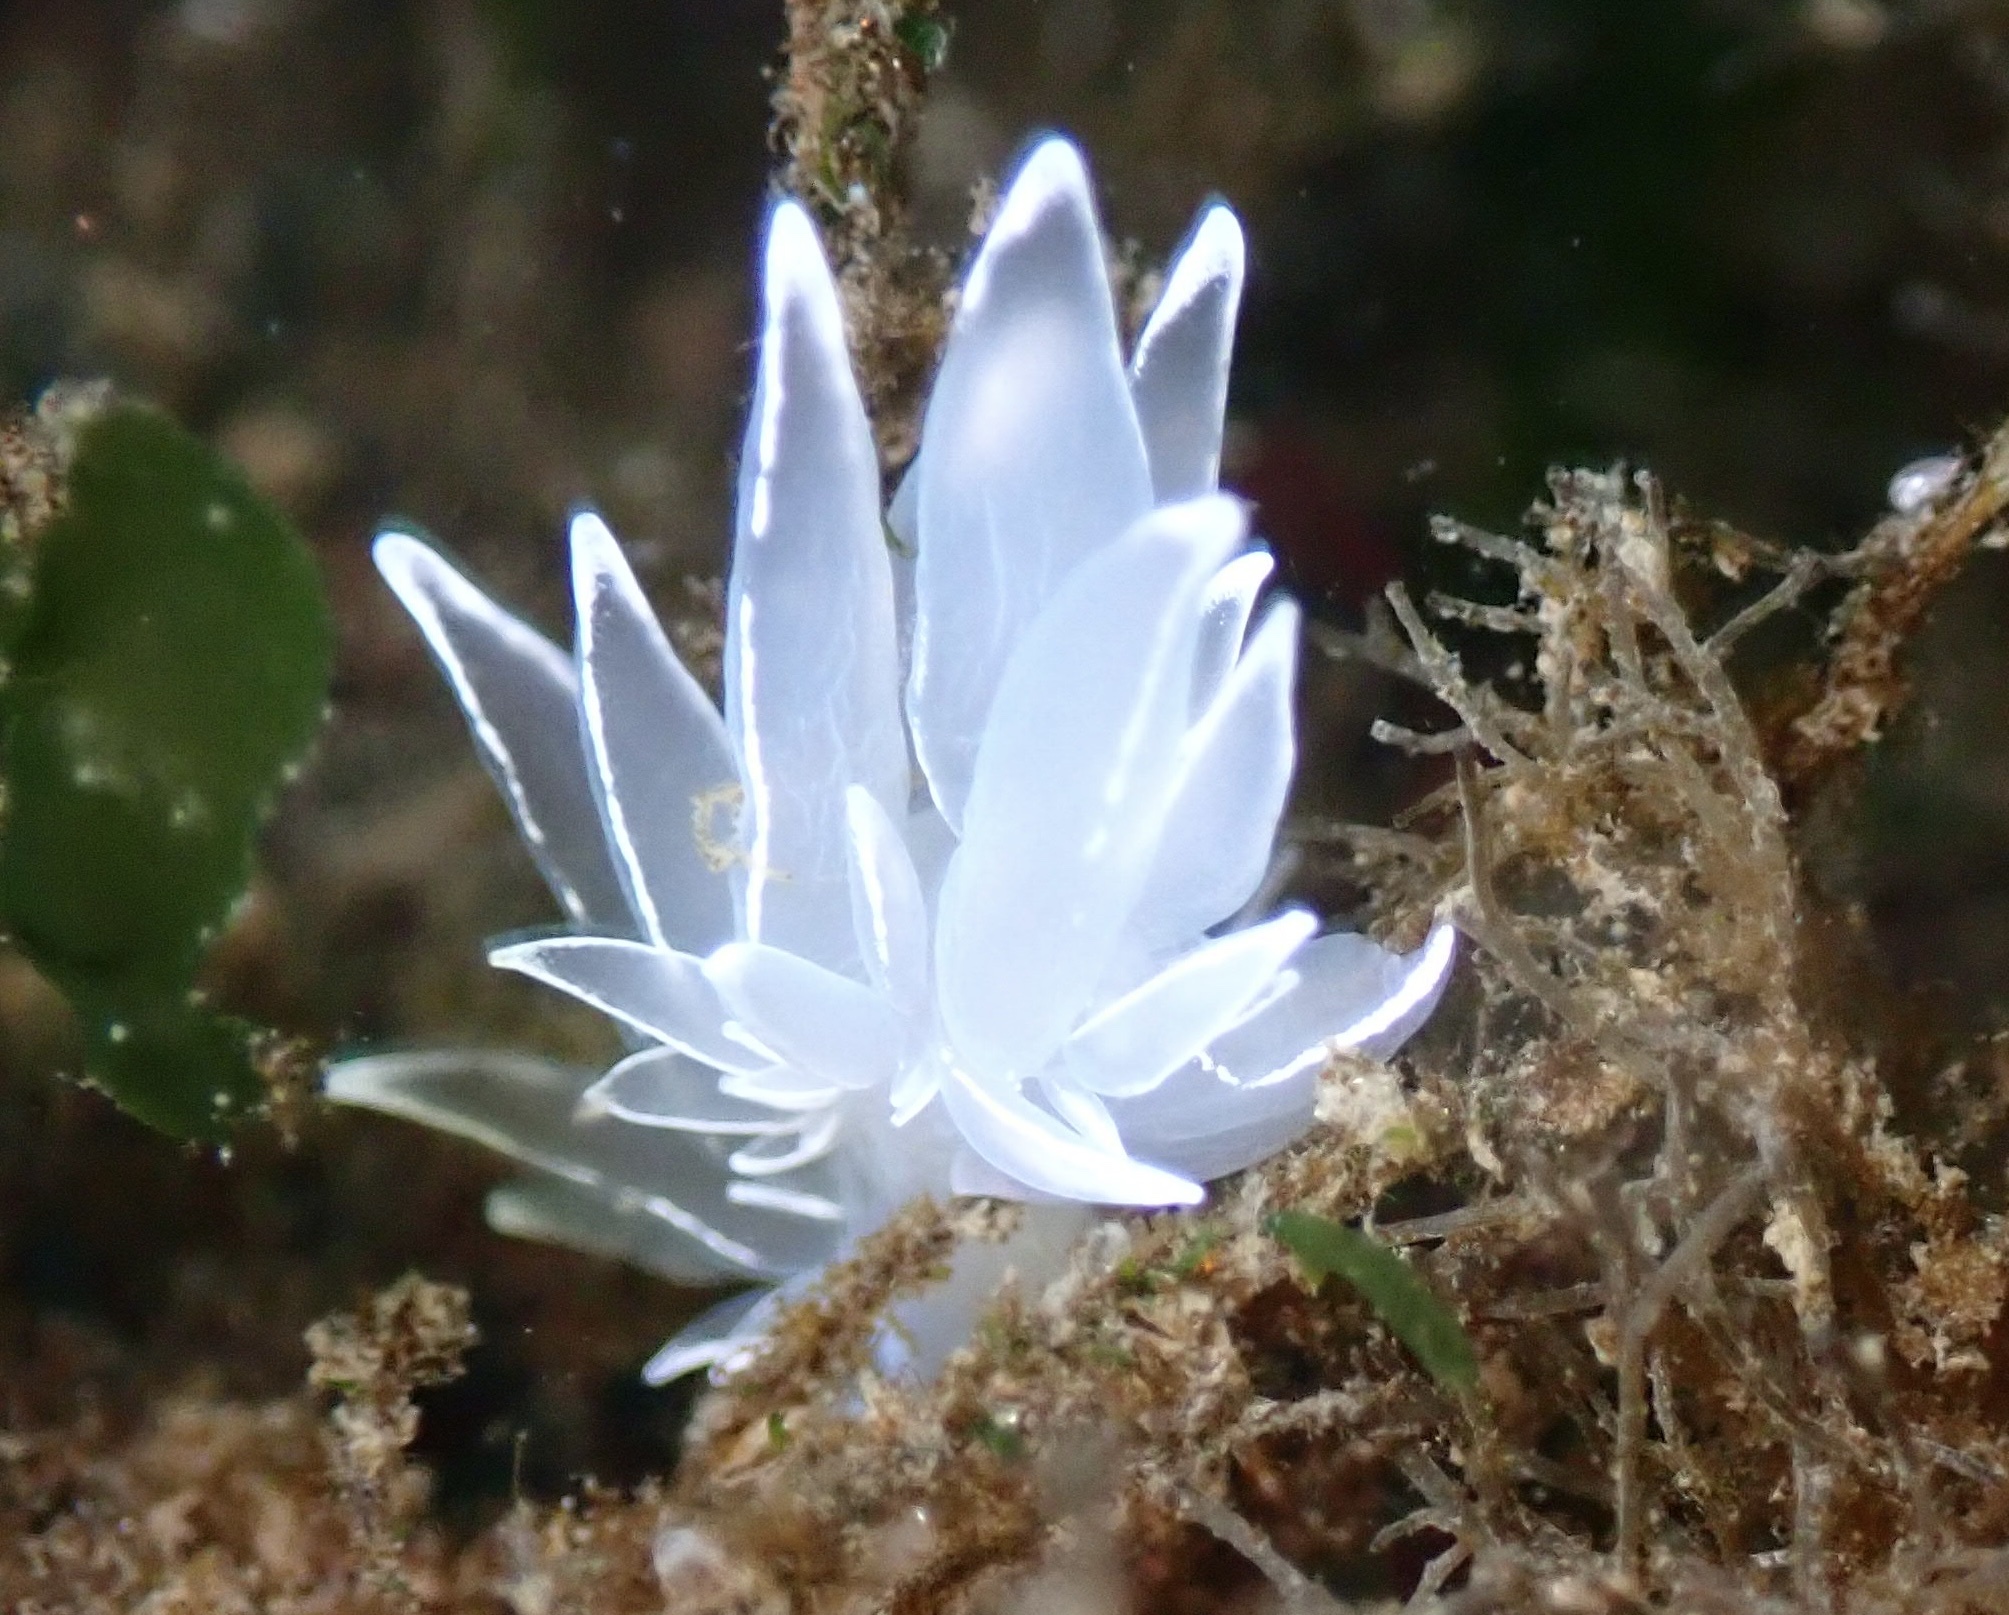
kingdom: Animalia
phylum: Mollusca
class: Gastropoda
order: Nudibranchia
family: Dironidae
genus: Dirona
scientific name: Dirona albolineata
